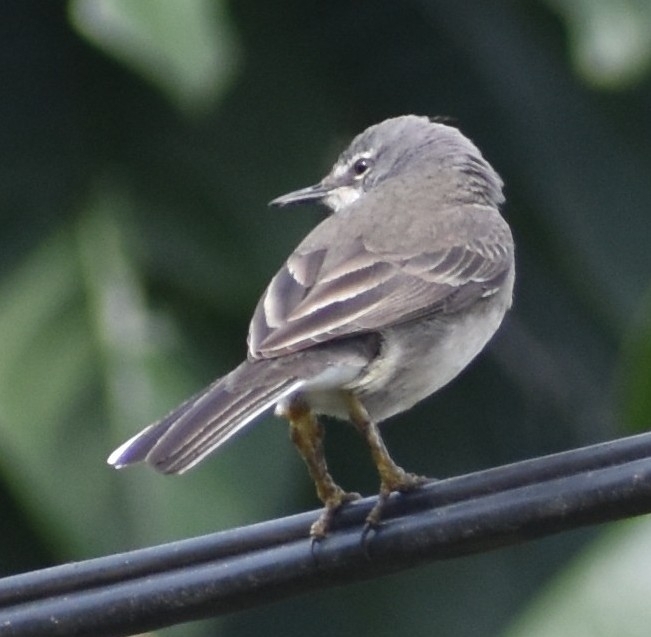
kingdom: Animalia
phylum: Chordata
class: Aves
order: Passeriformes
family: Motacillidae
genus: Motacilla
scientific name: Motacilla capensis
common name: Cape wagtail
